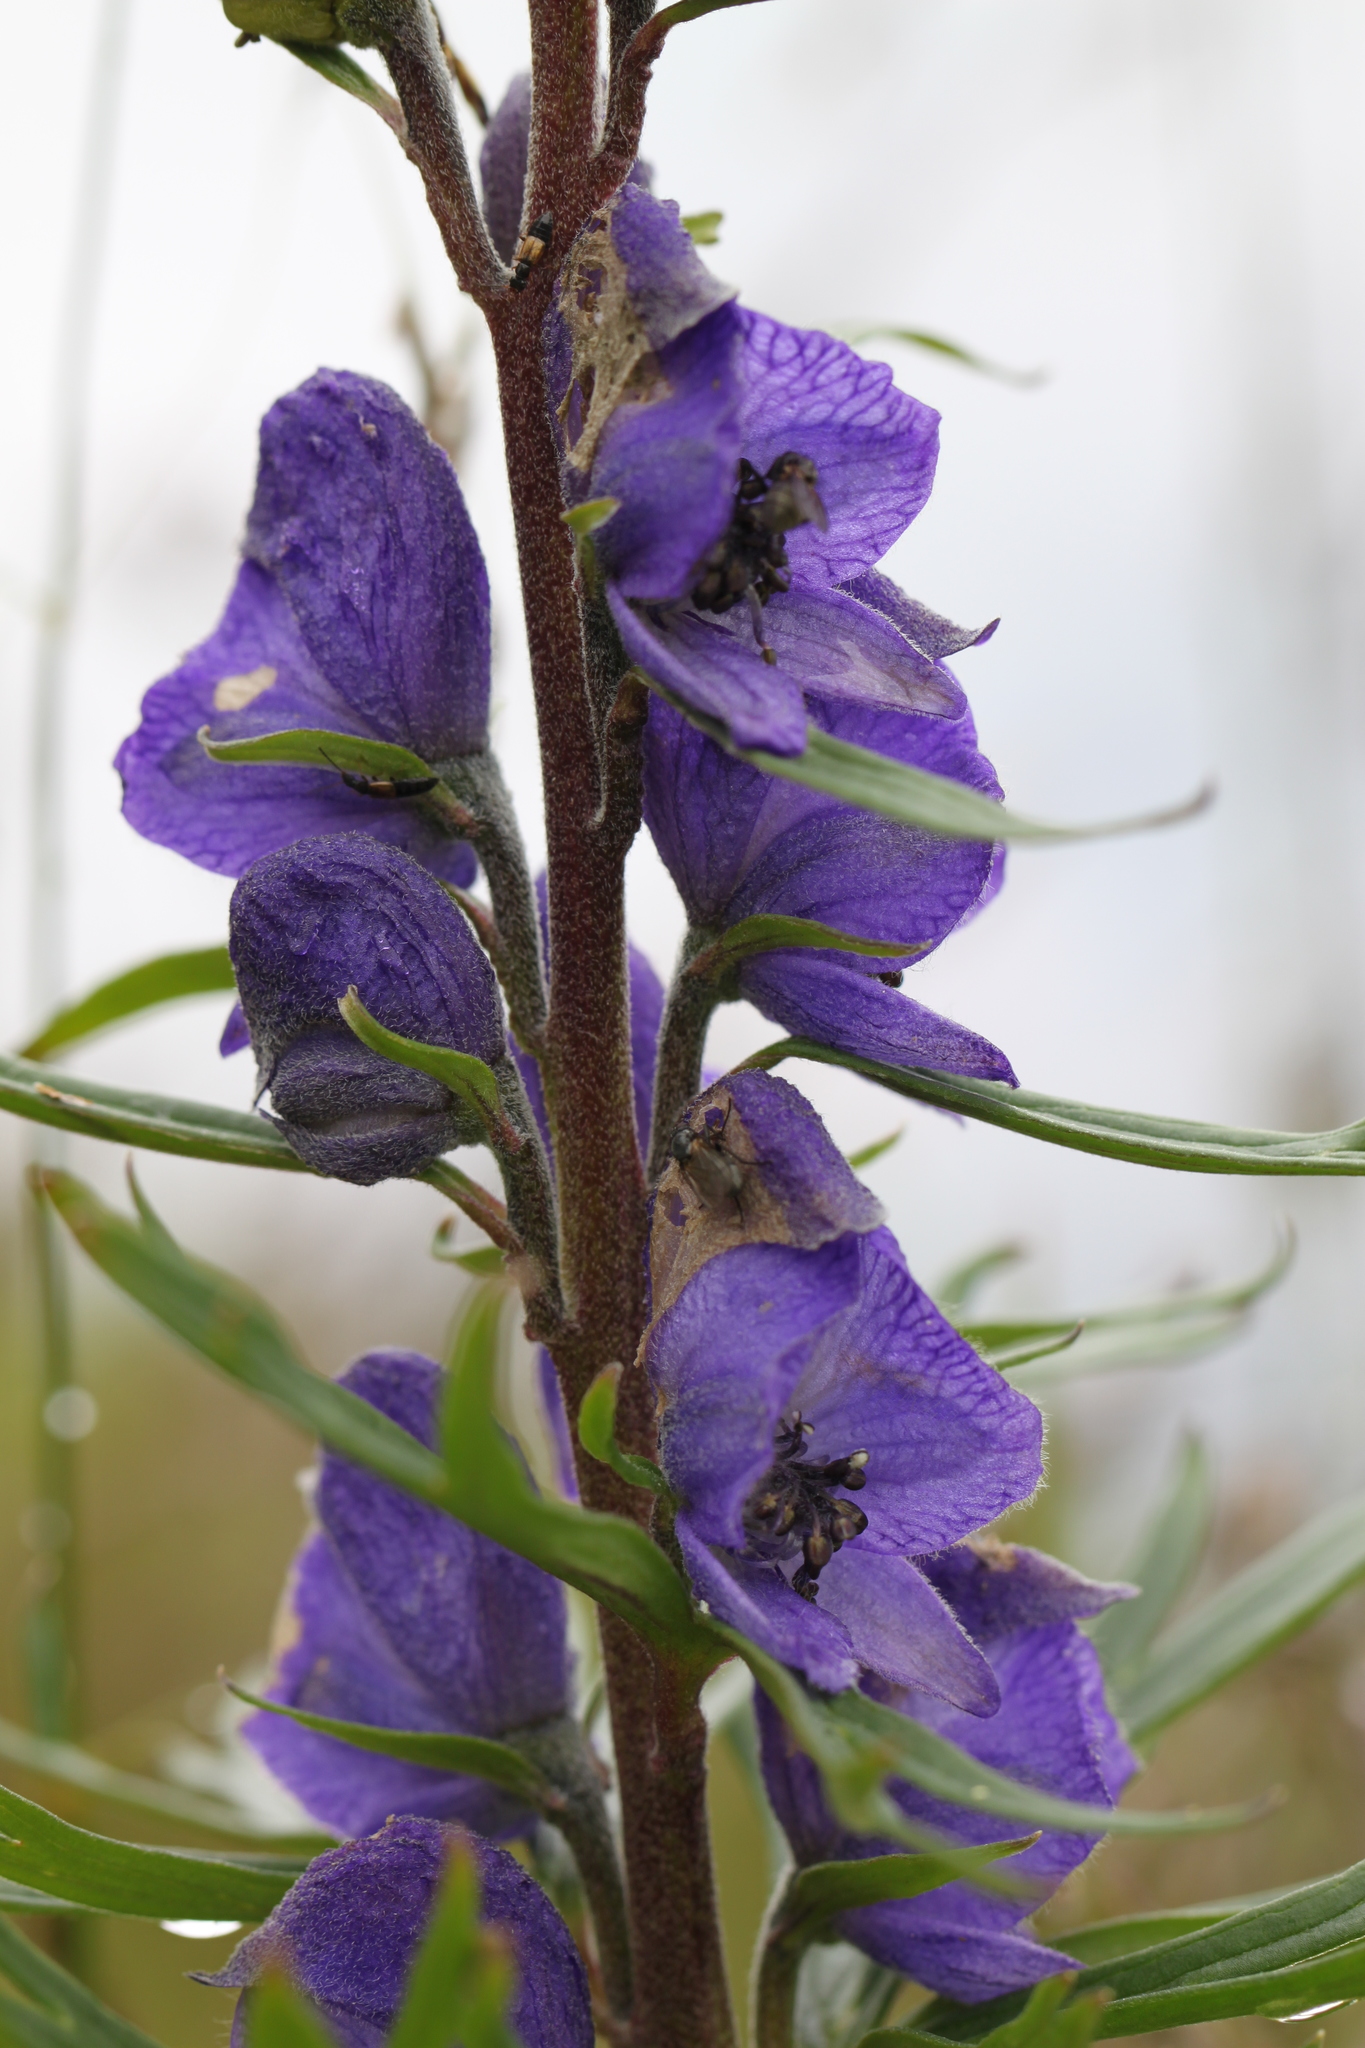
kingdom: Plantae
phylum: Tracheophyta
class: Magnoliopsida
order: Ranunculales
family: Ranunculaceae
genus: Aconitum
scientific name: Aconitum napellus
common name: Garden monkshood
